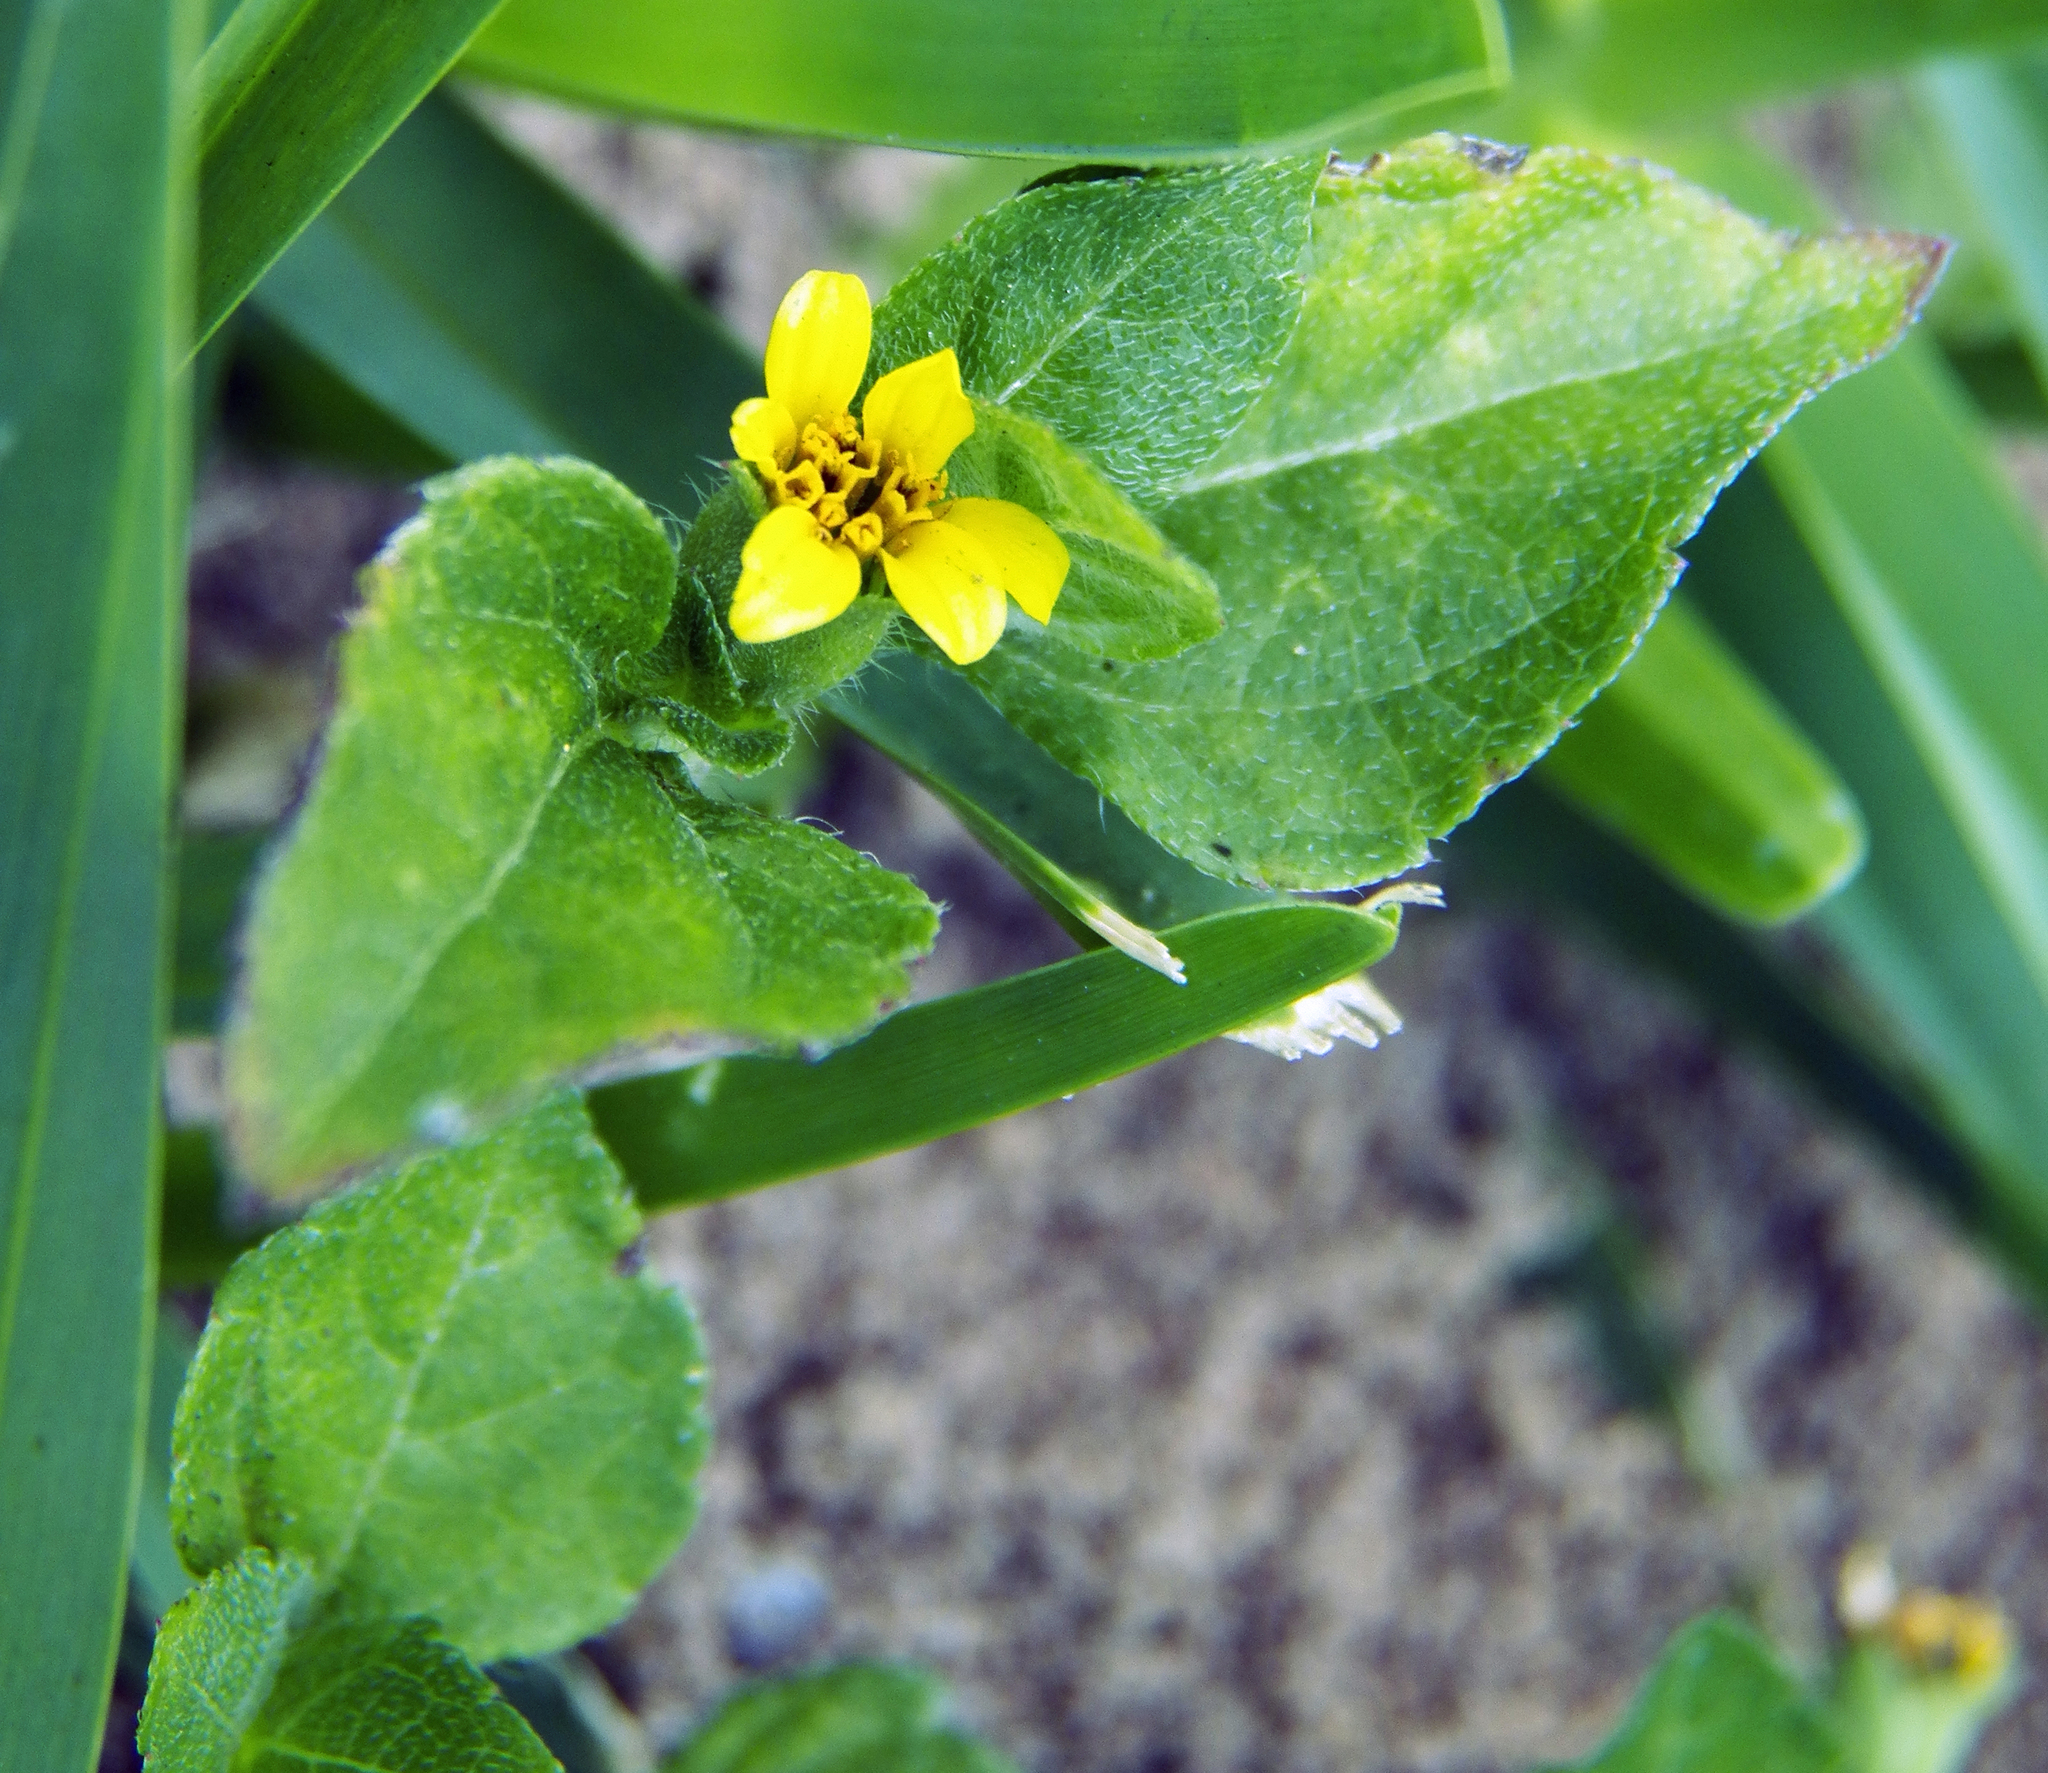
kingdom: Plantae
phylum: Tracheophyta
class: Magnoliopsida
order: Asterales
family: Asteraceae
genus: Calyptocarpus
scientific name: Calyptocarpus vialis
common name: Straggler daisy
